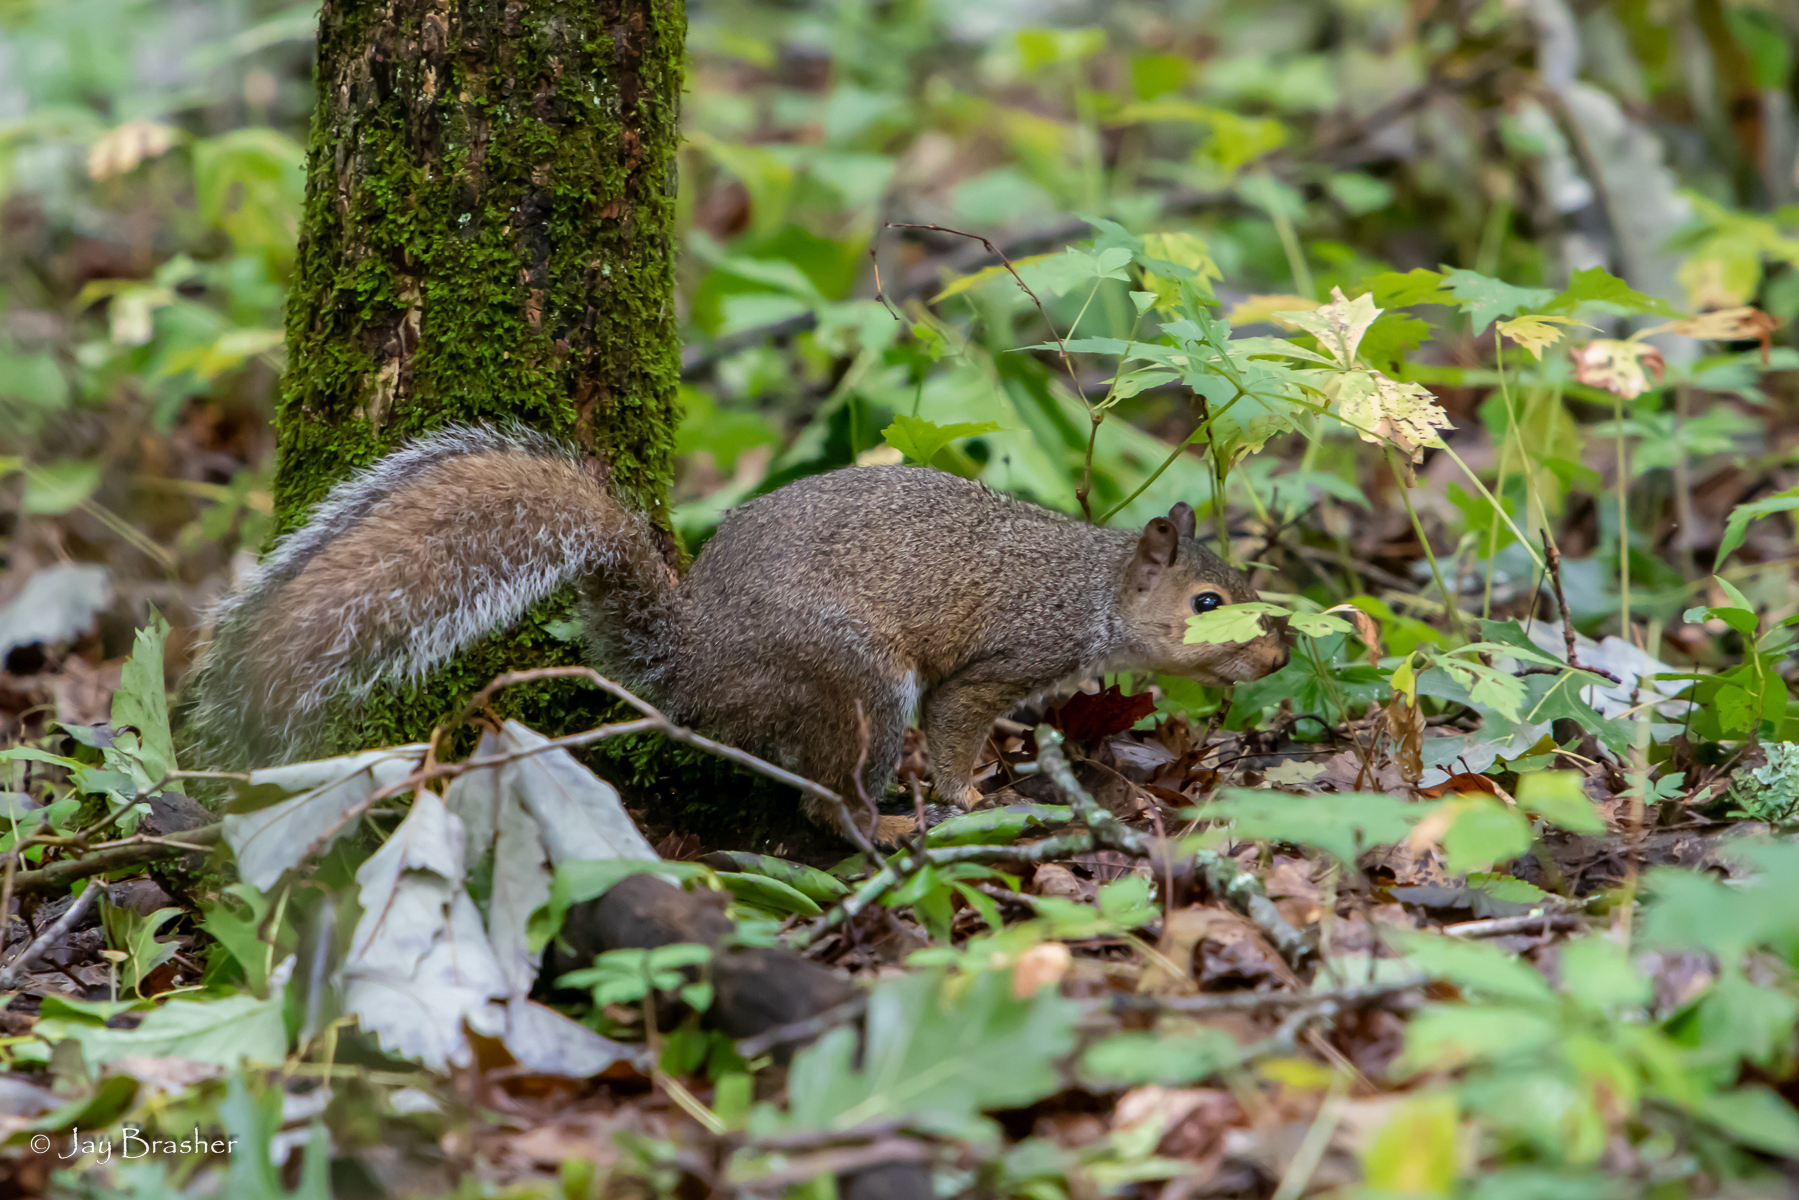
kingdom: Animalia
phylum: Chordata
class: Mammalia
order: Rodentia
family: Sciuridae
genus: Sciurus
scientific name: Sciurus carolinensis
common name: Eastern gray squirrel
